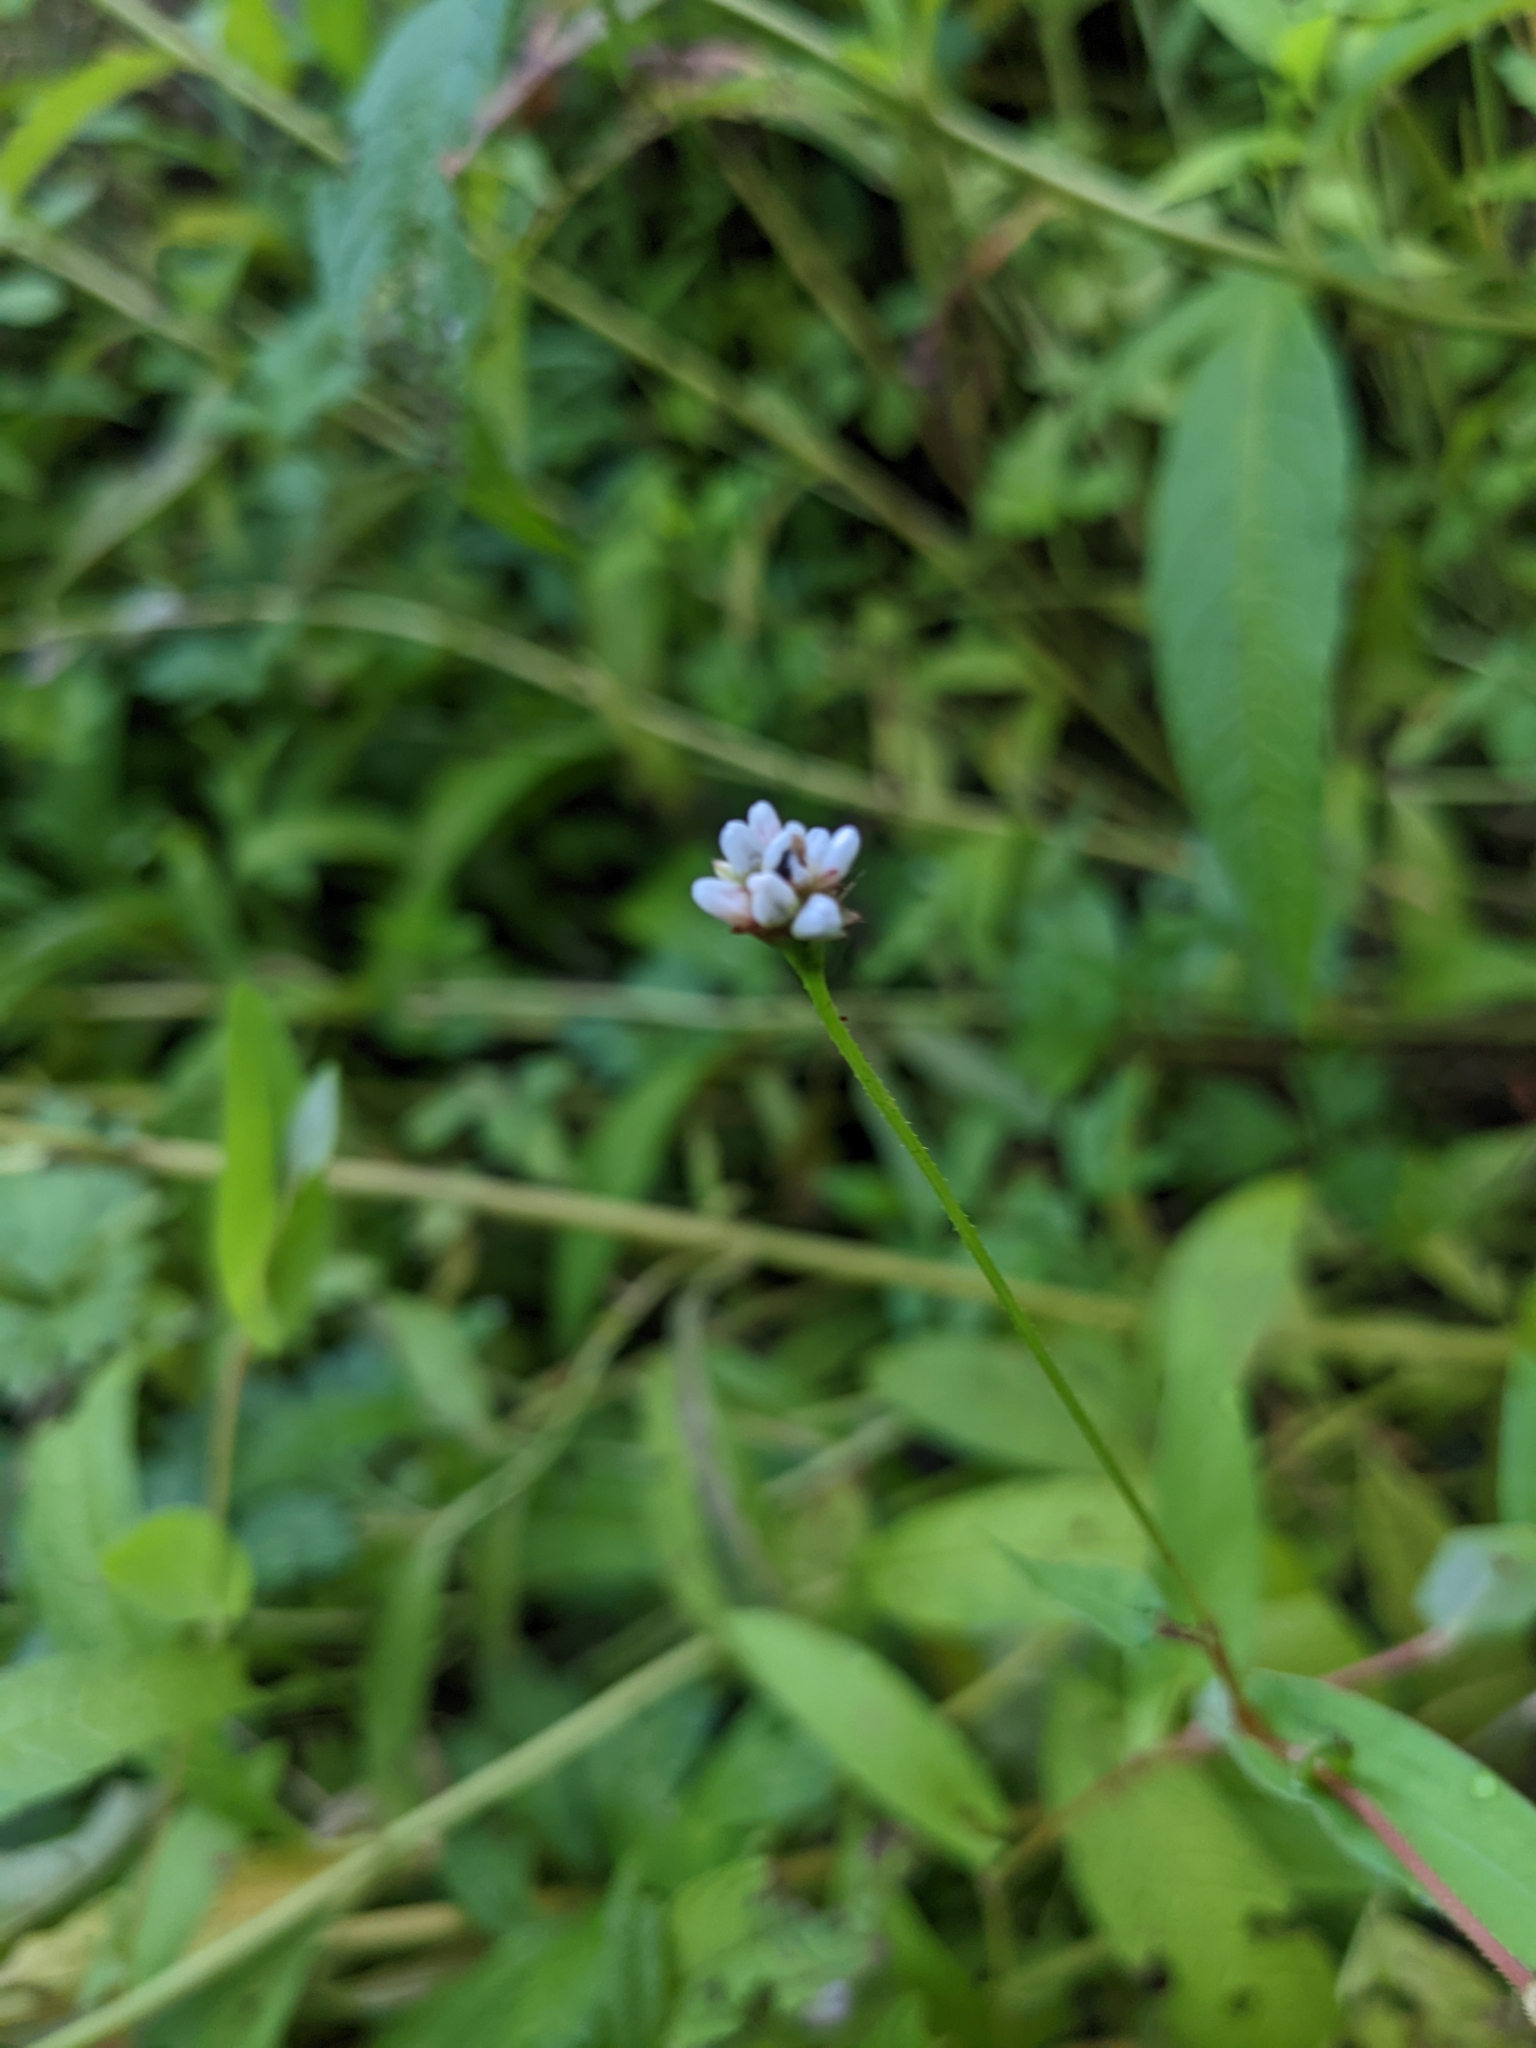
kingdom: Plantae
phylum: Tracheophyta
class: Magnoliopsida
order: Caryophyllales
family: Polygonaceae
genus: Persicaria
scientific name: Persicaria sagittata
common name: American tearthumb
